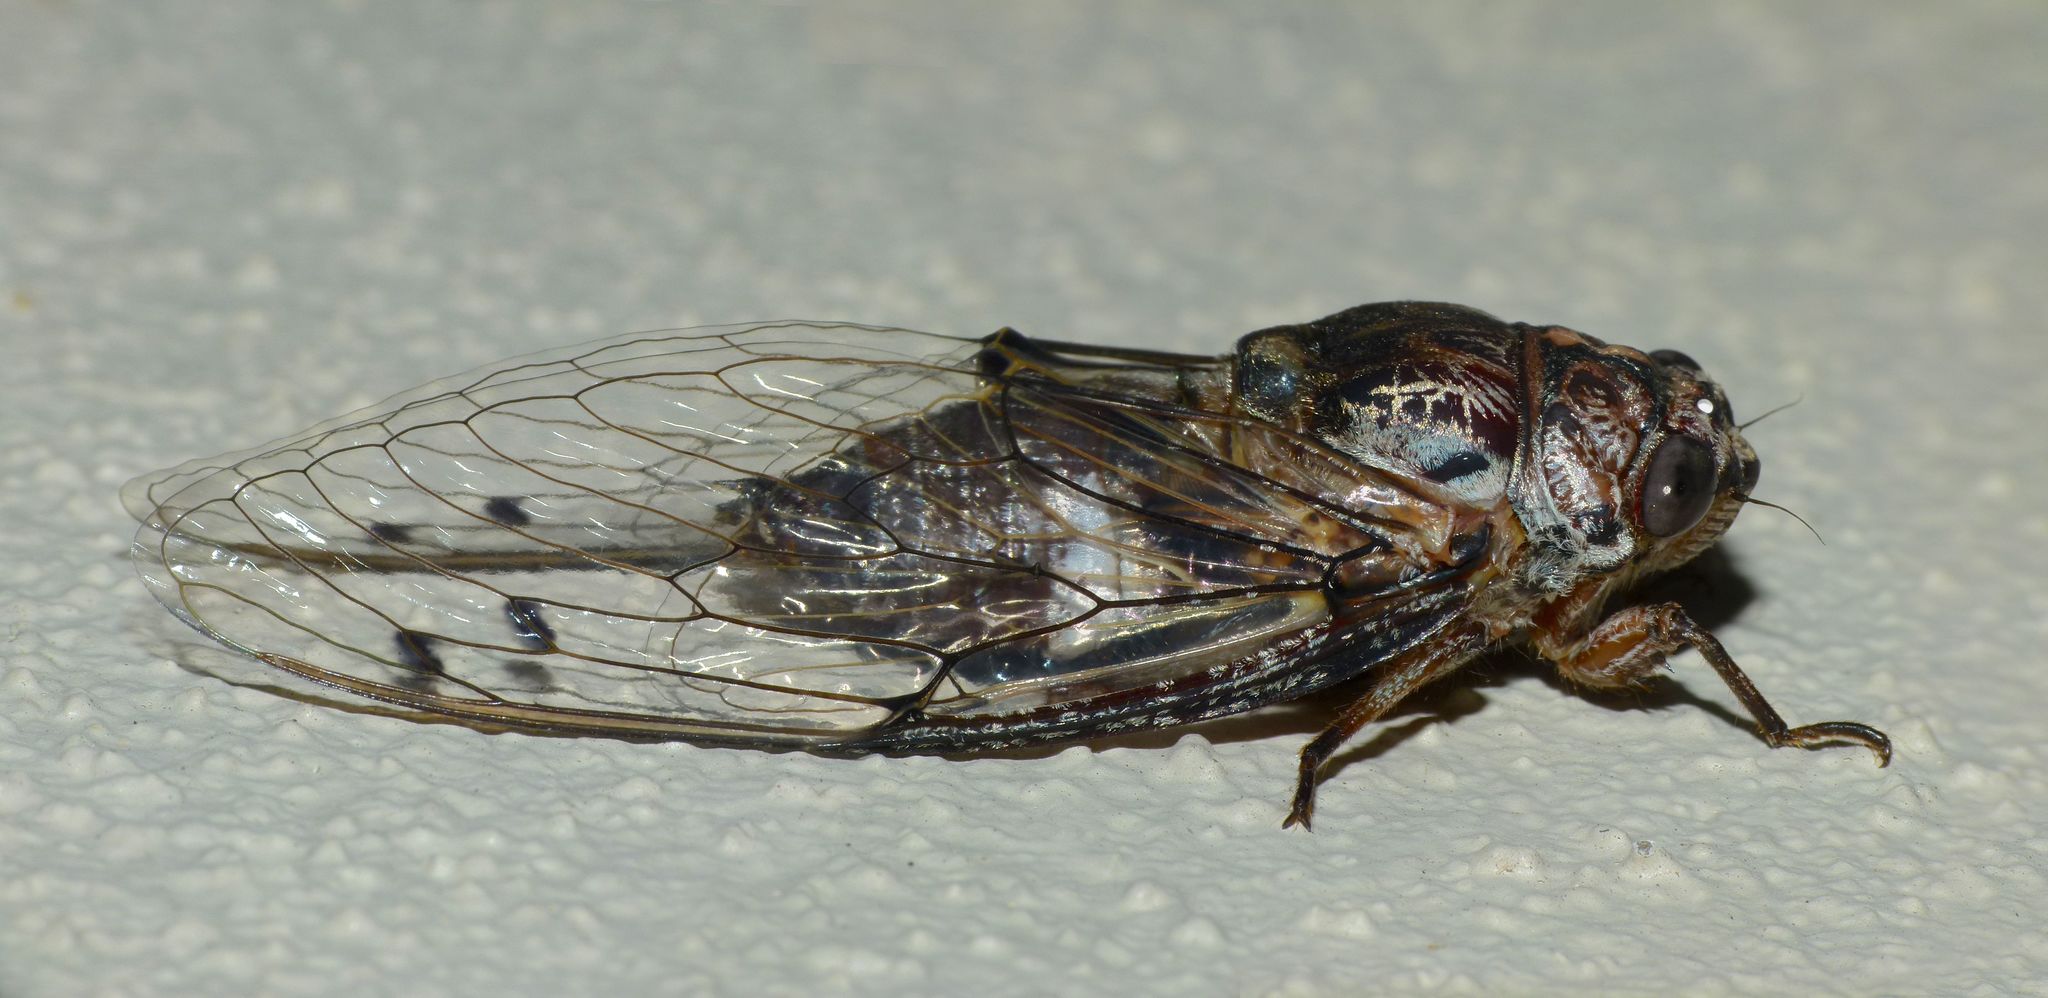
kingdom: Animalia
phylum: Arthropoda
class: Insecta
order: Hemiptera
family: Cicadidae
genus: Aleeta
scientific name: Aleeta curvicosta
